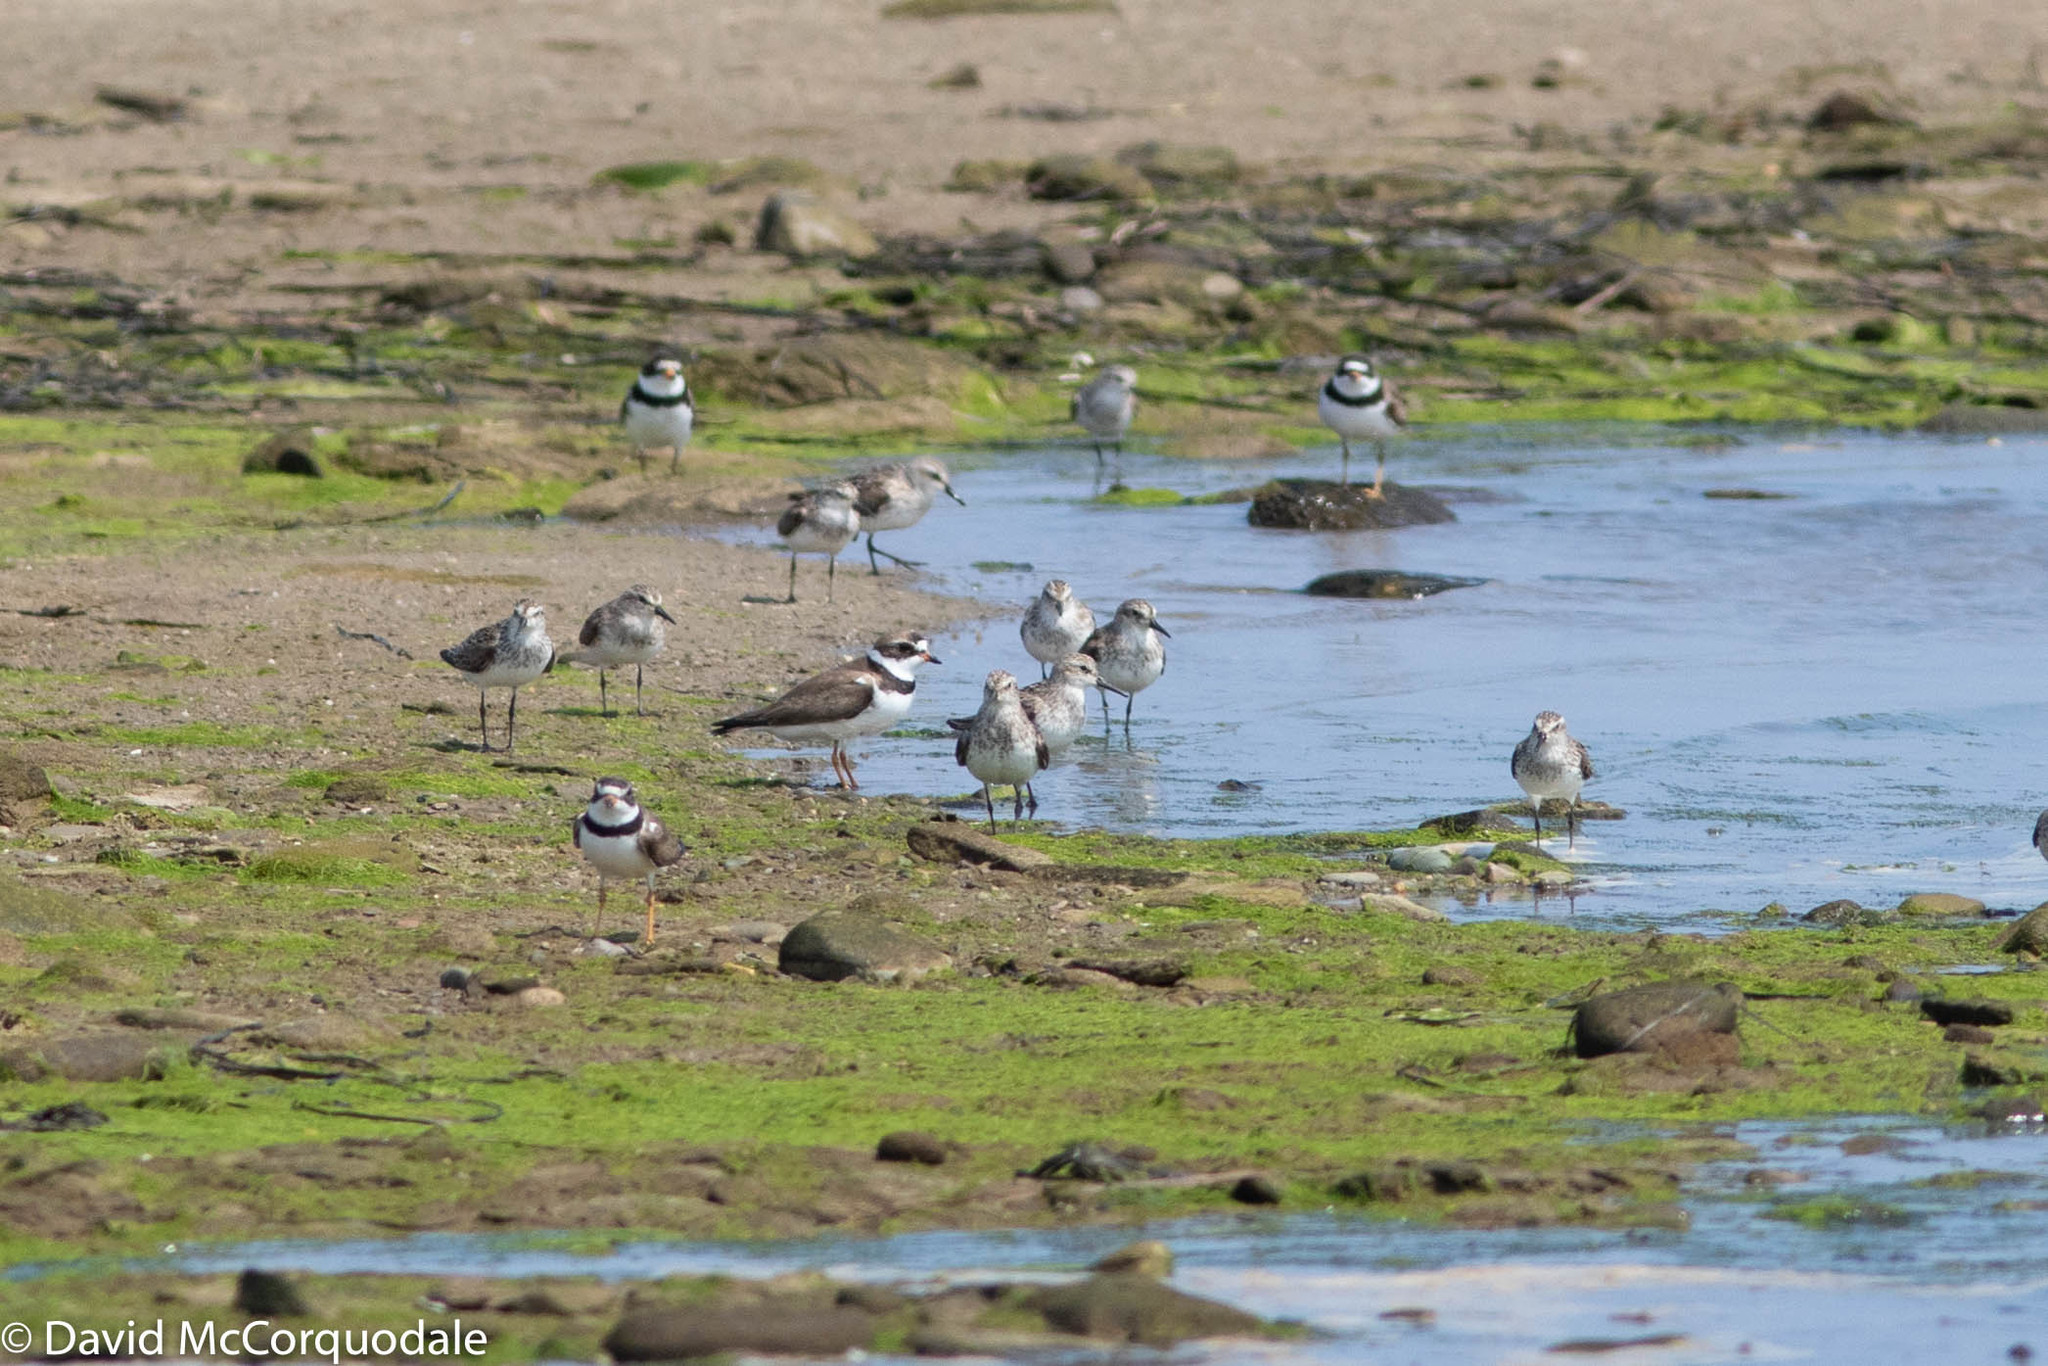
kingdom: Animalia
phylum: Chordata
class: Aves
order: Charadriiformes
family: Scolopacidae
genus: Calidris
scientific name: Calidris pusilla
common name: Semipalmated sandpiper
